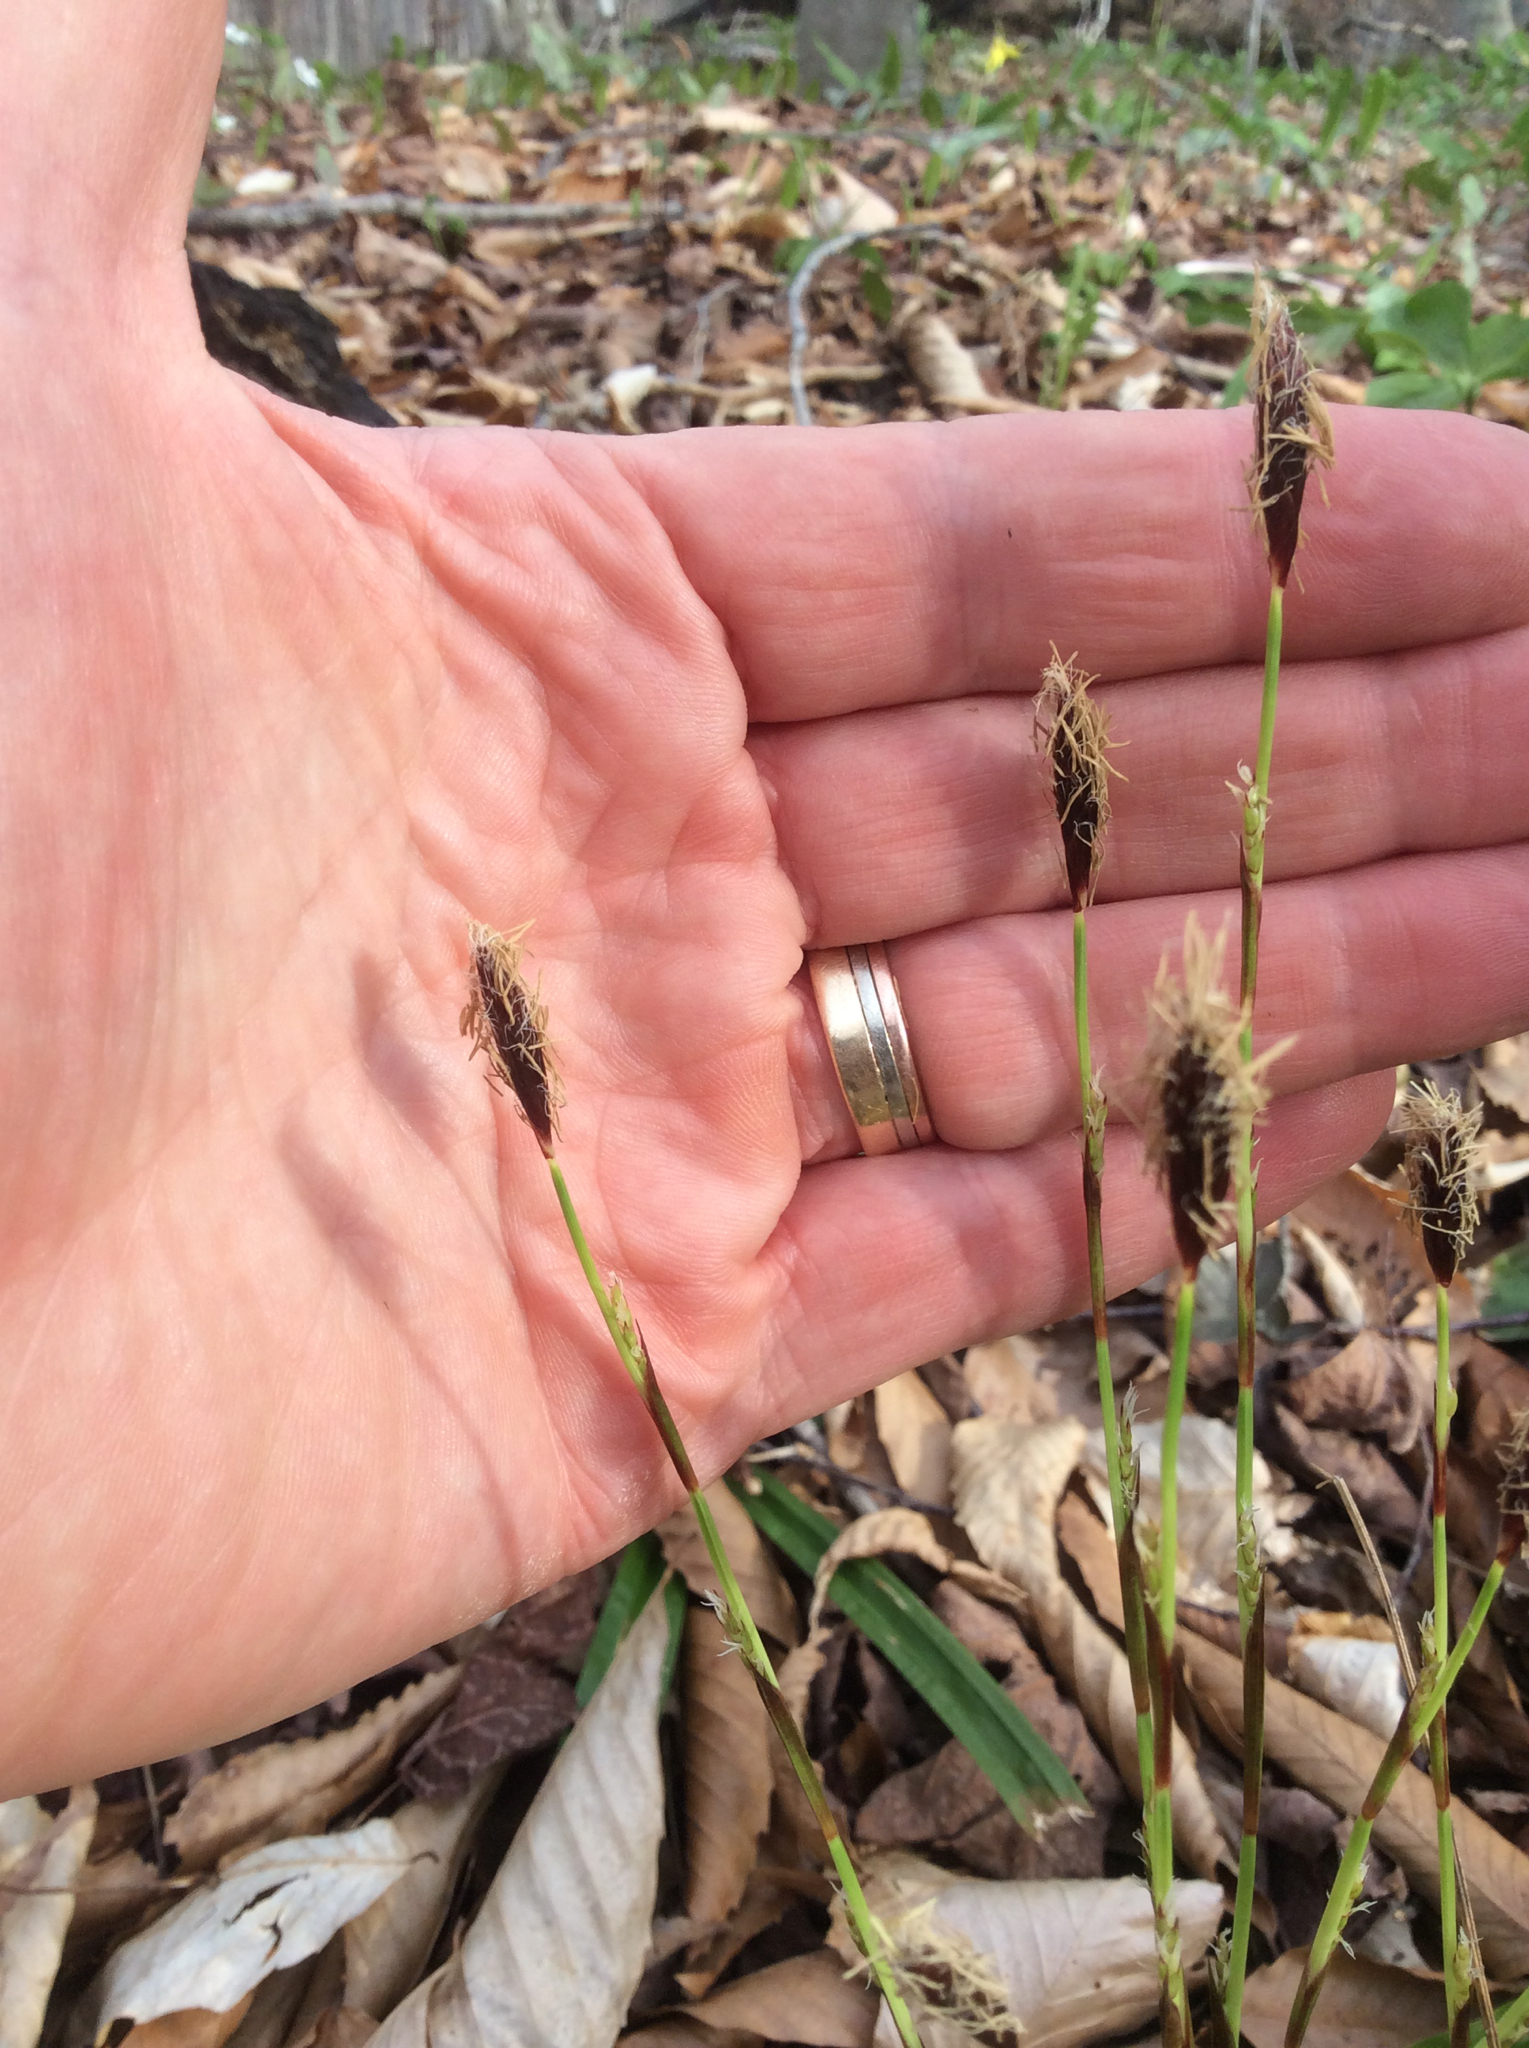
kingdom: Plantae
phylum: Tracheophyta
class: Liliopsida
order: Poales
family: Cyperaceae
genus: Carex
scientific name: Carex plantaginea
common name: Plantain-leaved sedge
